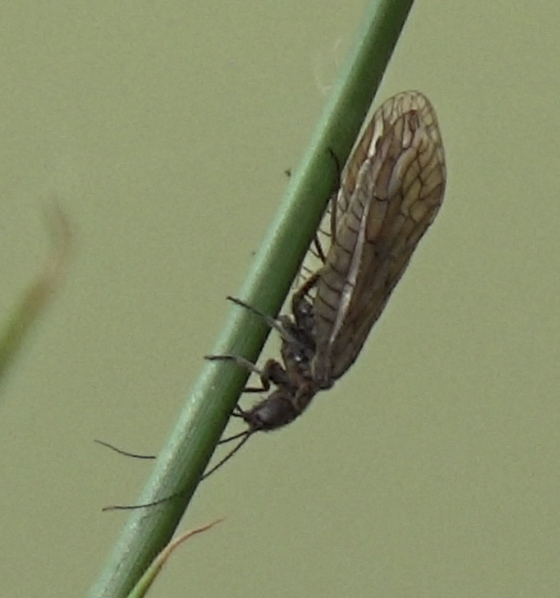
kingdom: Animalia
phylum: Arthropoda
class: Insecta
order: Megaloptera
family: Sialidae
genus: Sialis
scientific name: Sialis
